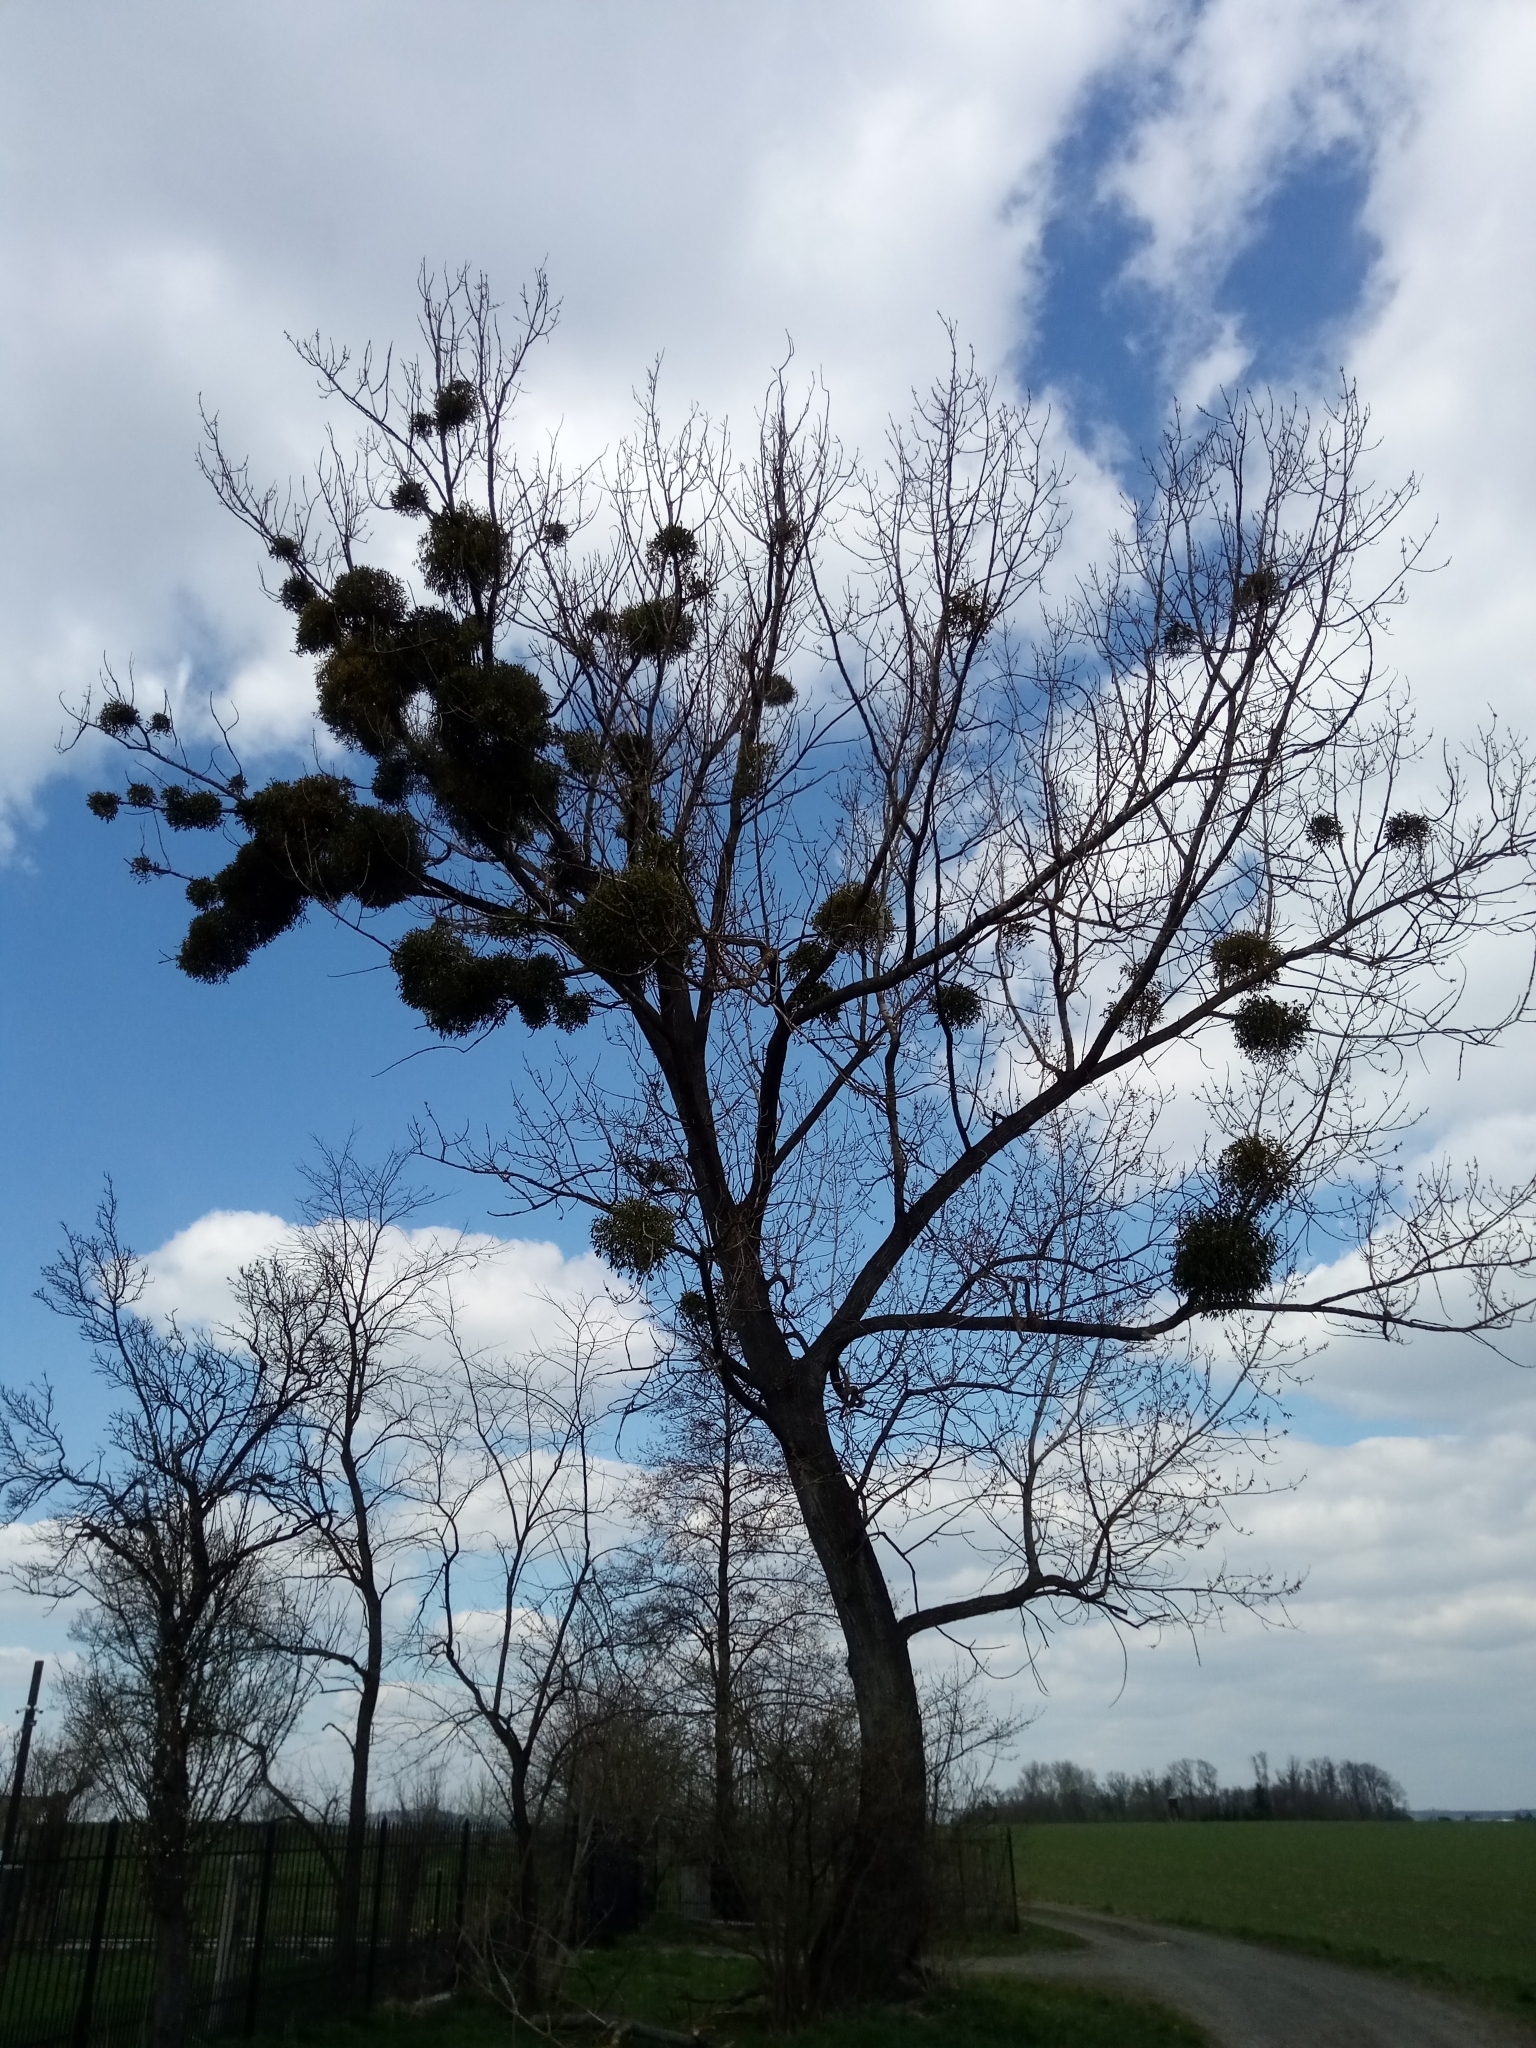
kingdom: Plantae
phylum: Tracheophyta
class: Magnoliopsida
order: Santalales
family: Viscaceae
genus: Viscum
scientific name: Viscum album
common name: Mistletoe
